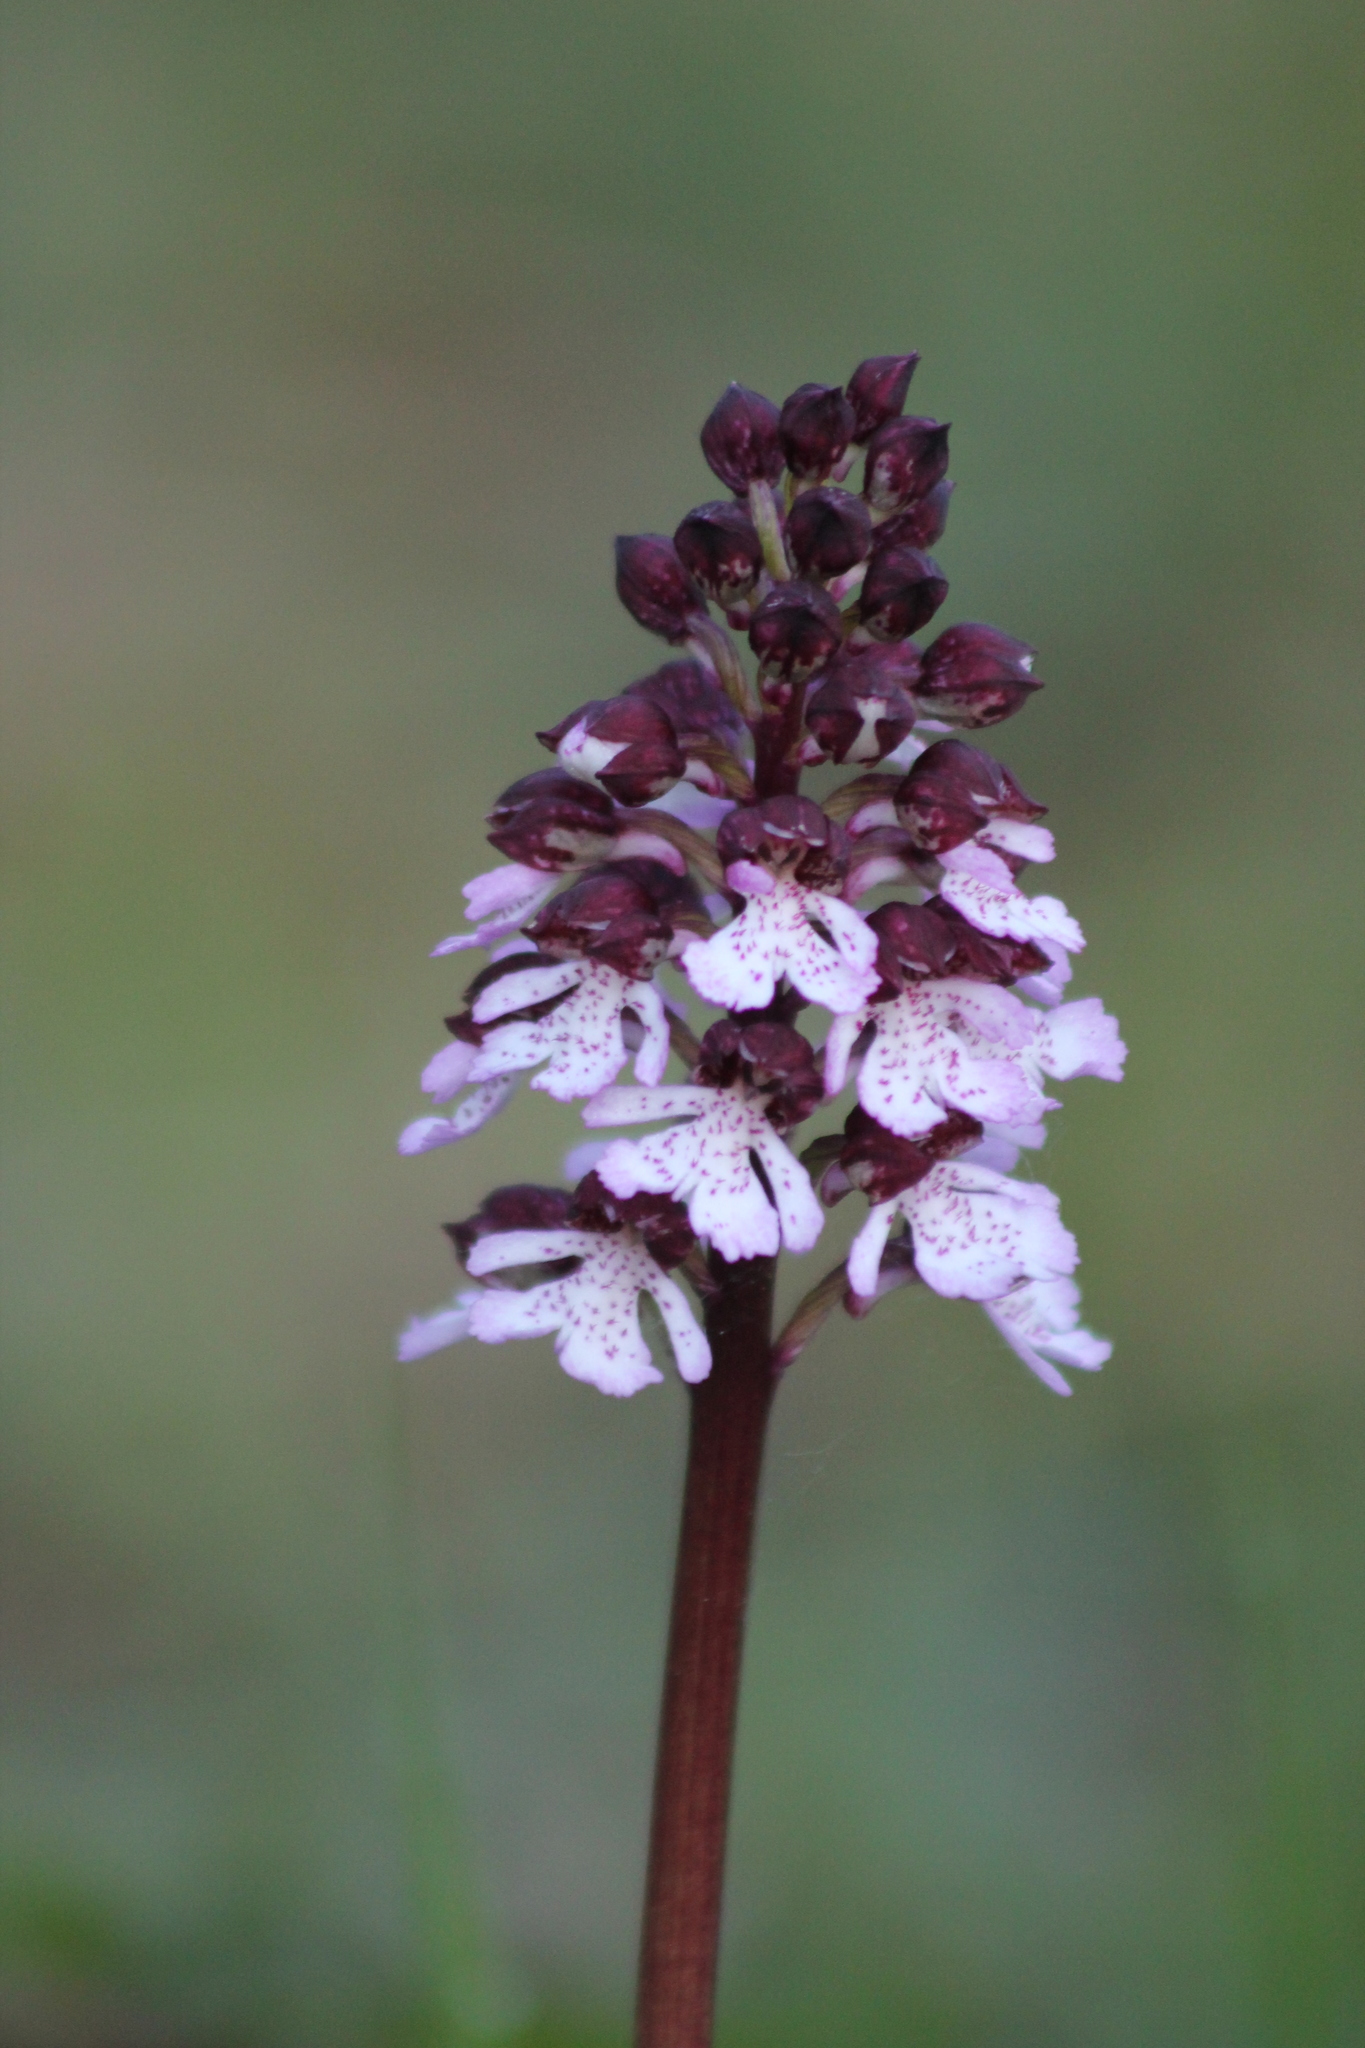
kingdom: Plantae
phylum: Tracheophyta
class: Liliopsida
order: Asparagales
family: Orchidaceae
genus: Orchis
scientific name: Orchis purpurea
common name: Lady orchid
